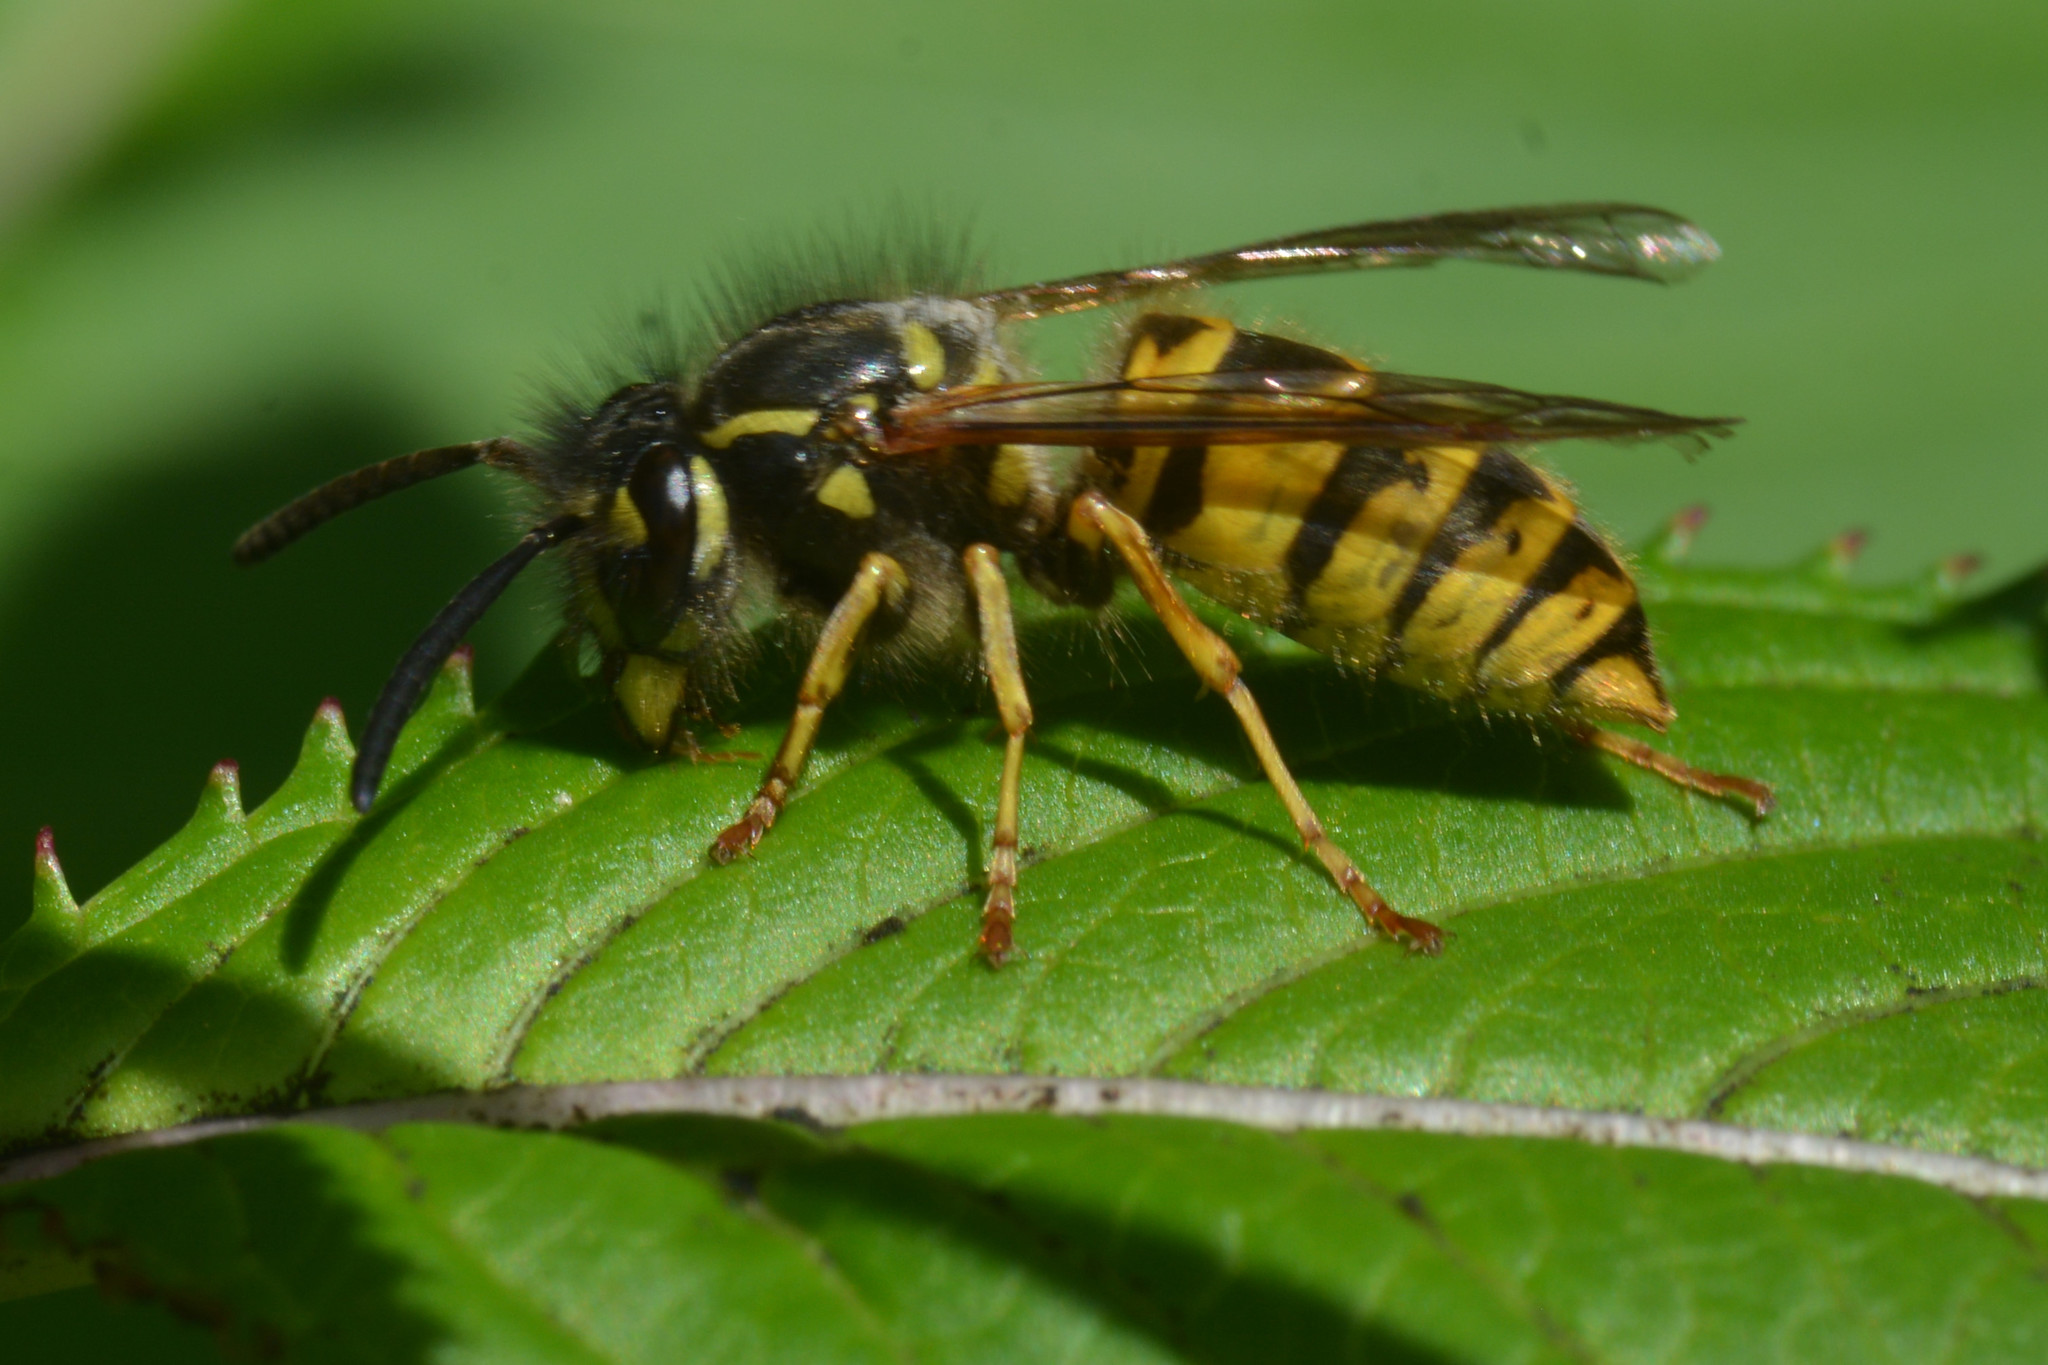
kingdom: Animalia
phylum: Arthropoda
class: Insecta
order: Hymenoptera
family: Vespidae
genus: Vespula
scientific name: Vespula vulgaris
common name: Common wasp
